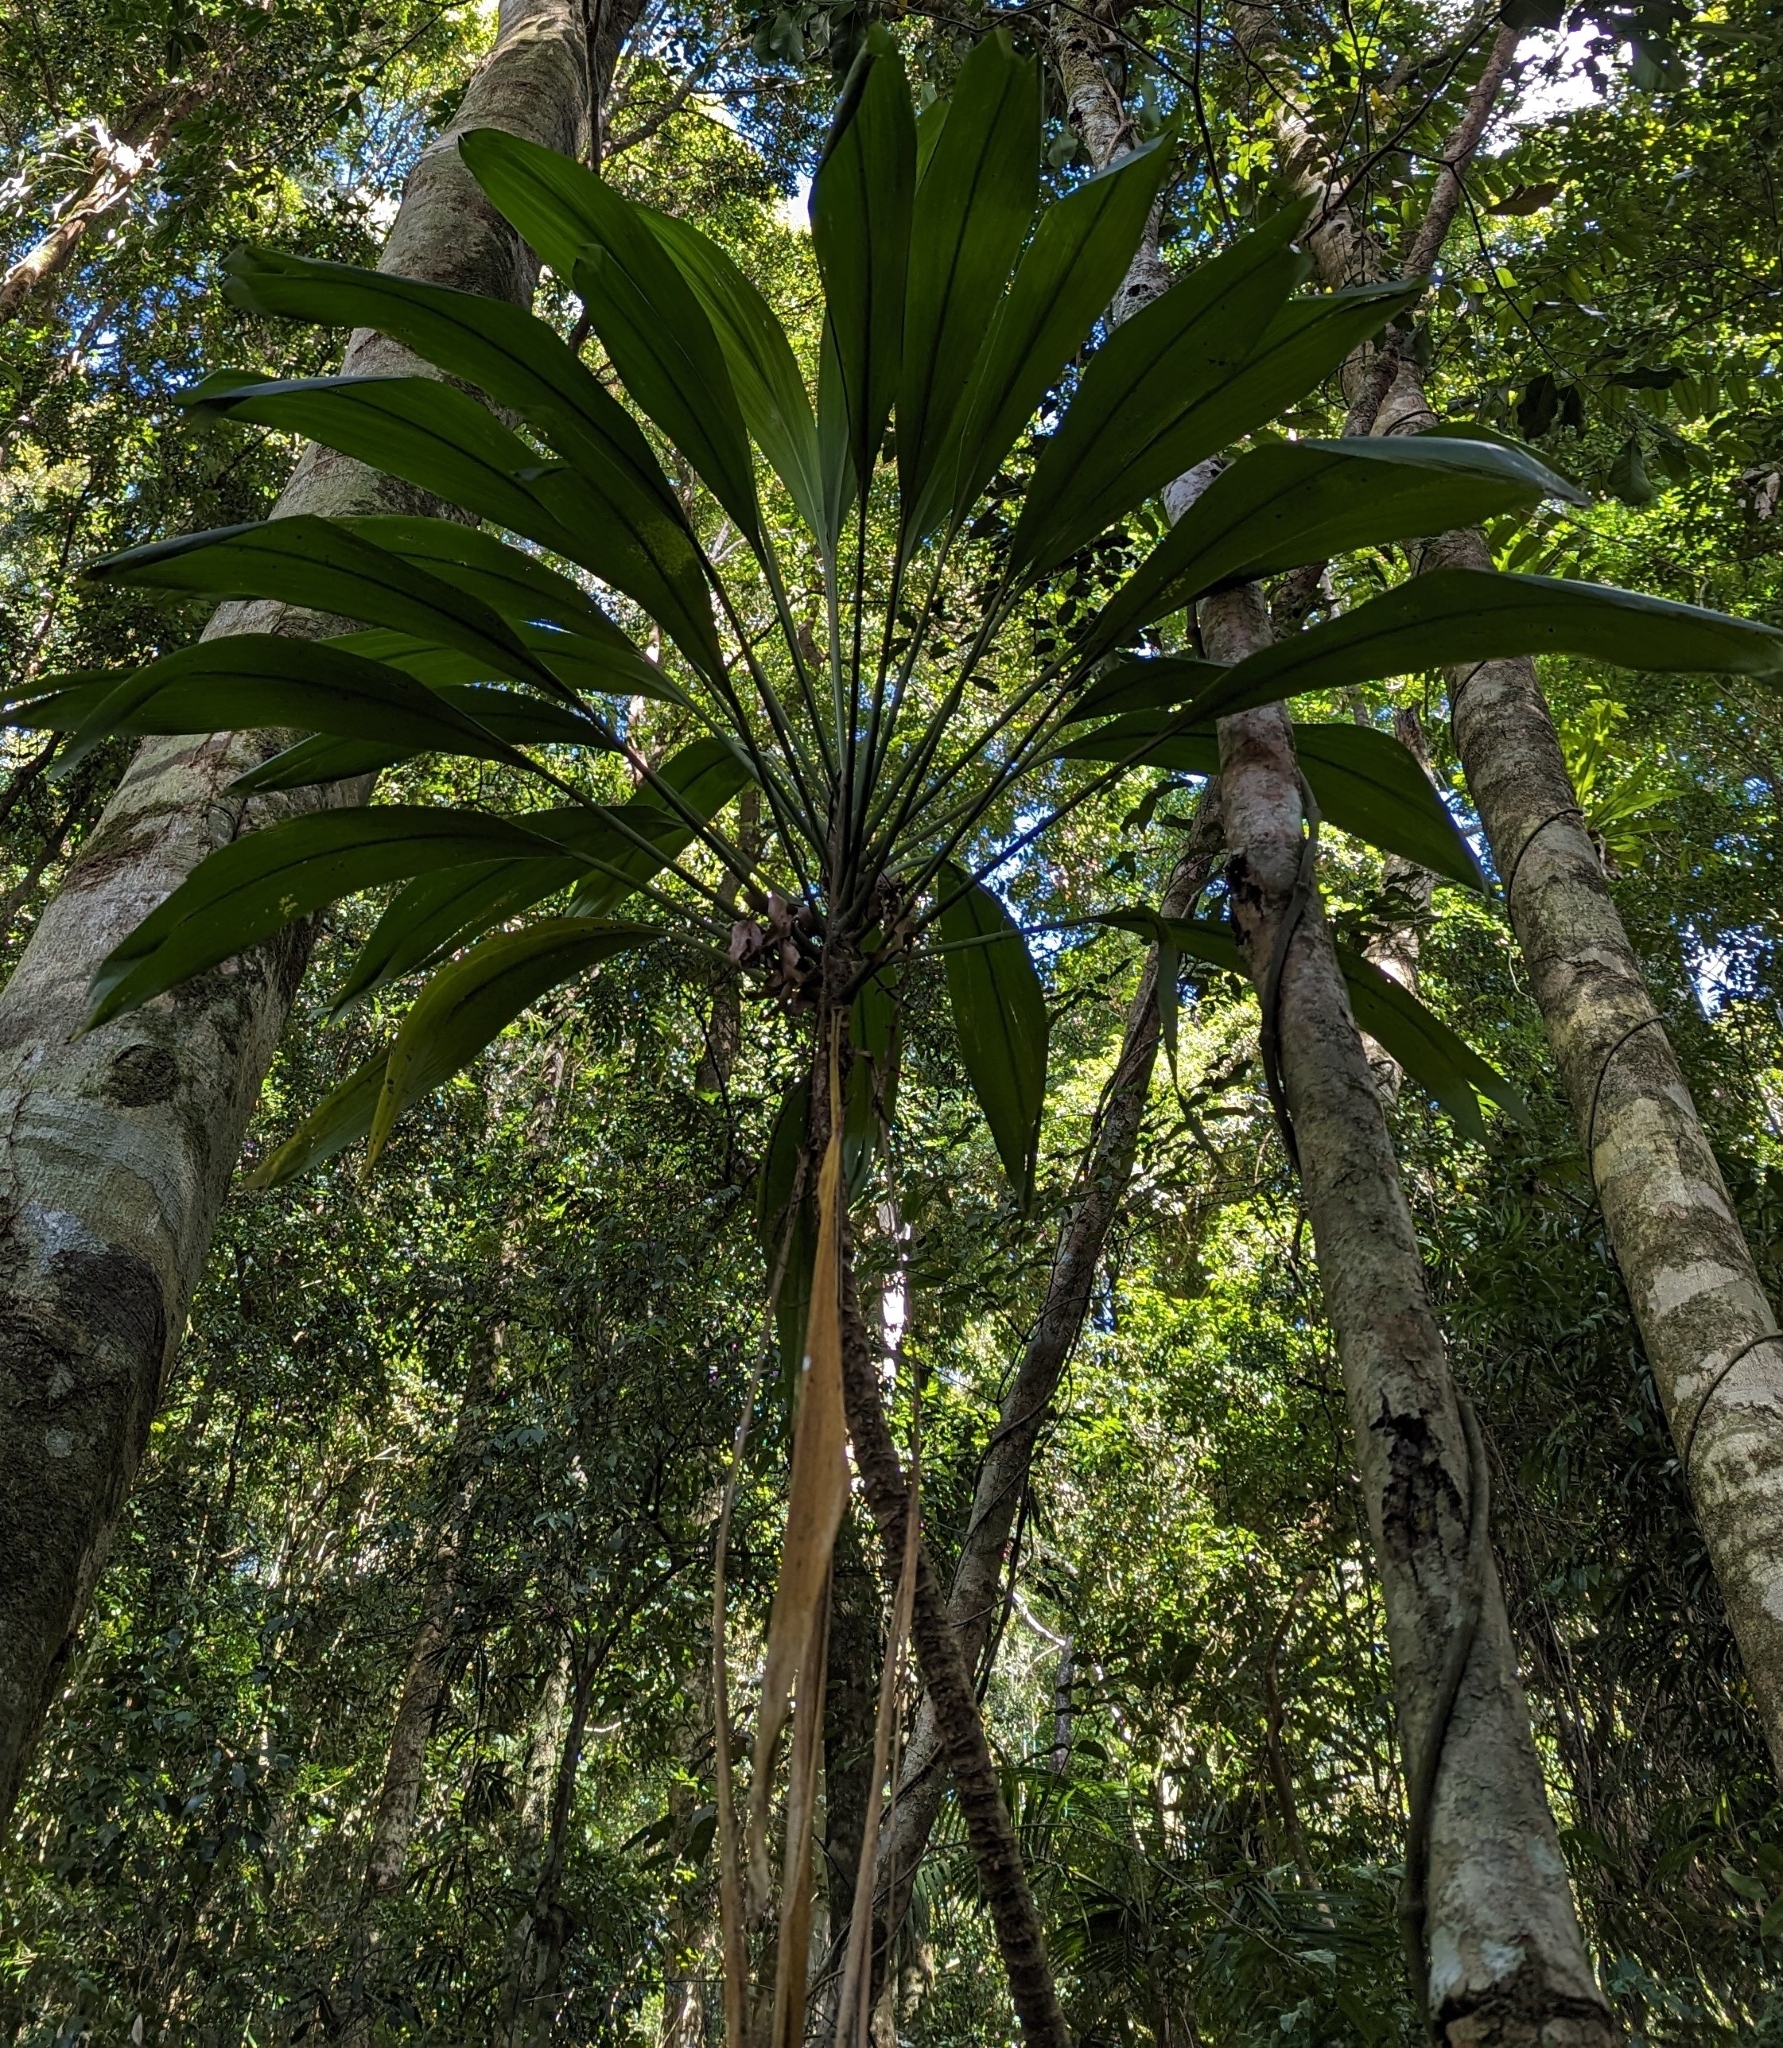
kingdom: Plantae
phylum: Tracheophyta
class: Liliopsida
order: Asparagales
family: Asparagaceae
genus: Cordyline
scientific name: Cordyline petiolaris
